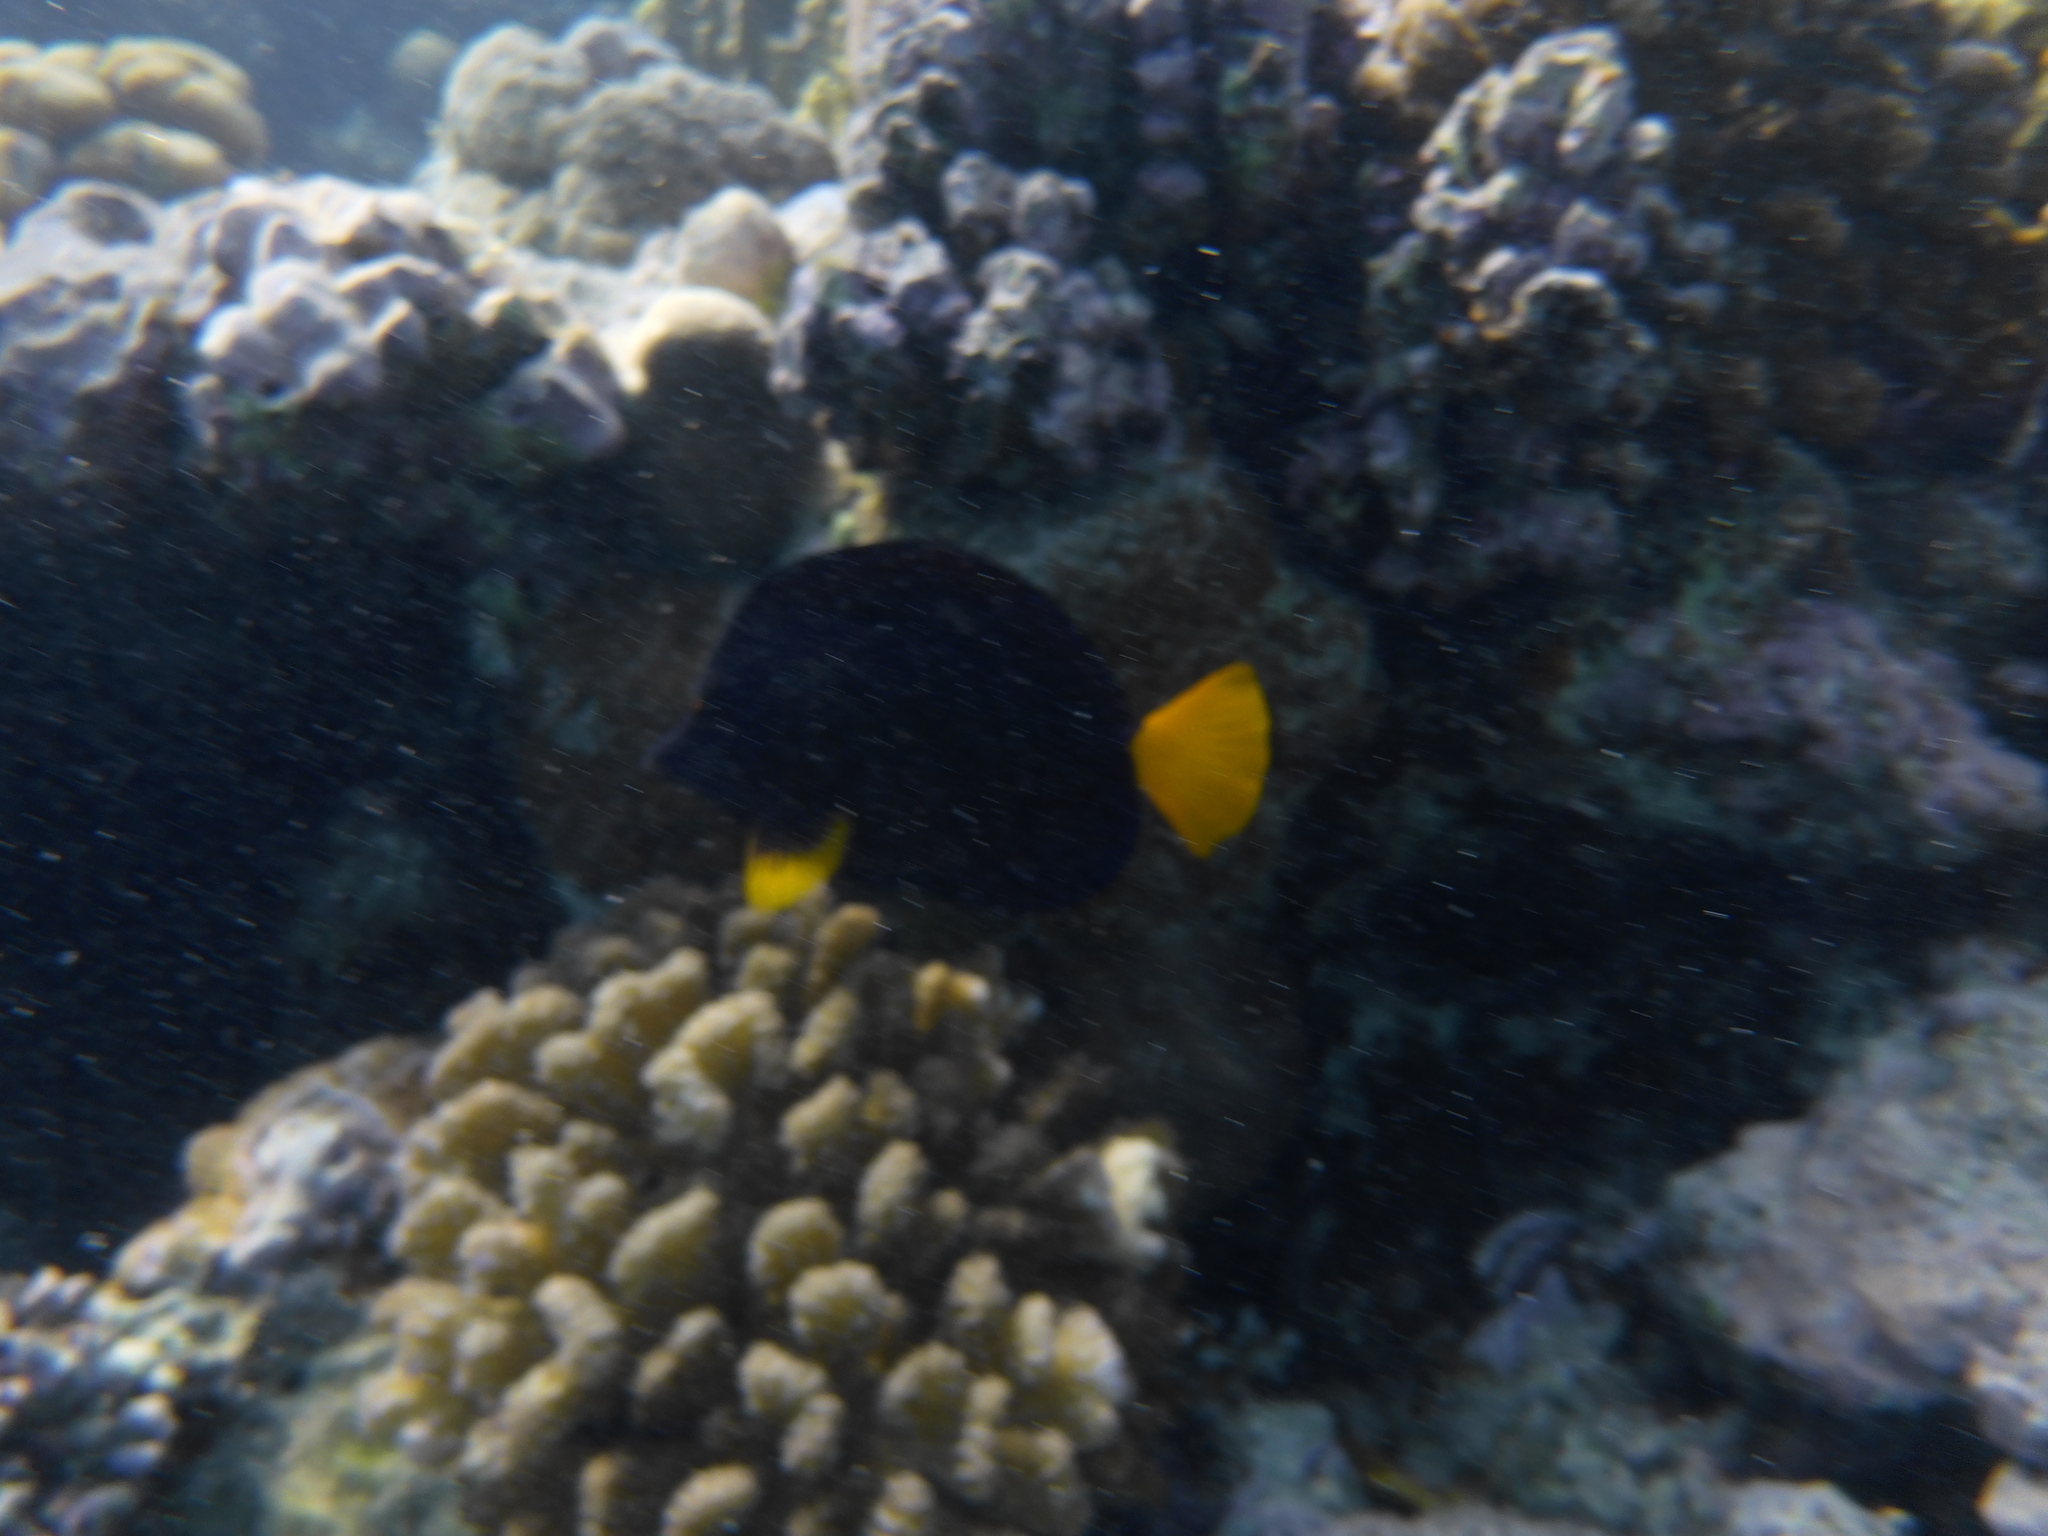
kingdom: Animalia
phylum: Chordata
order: Perciformes
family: Acanthuridae
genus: Zebrasoma
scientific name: Zebrasoma xanthurum
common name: Purple tang
